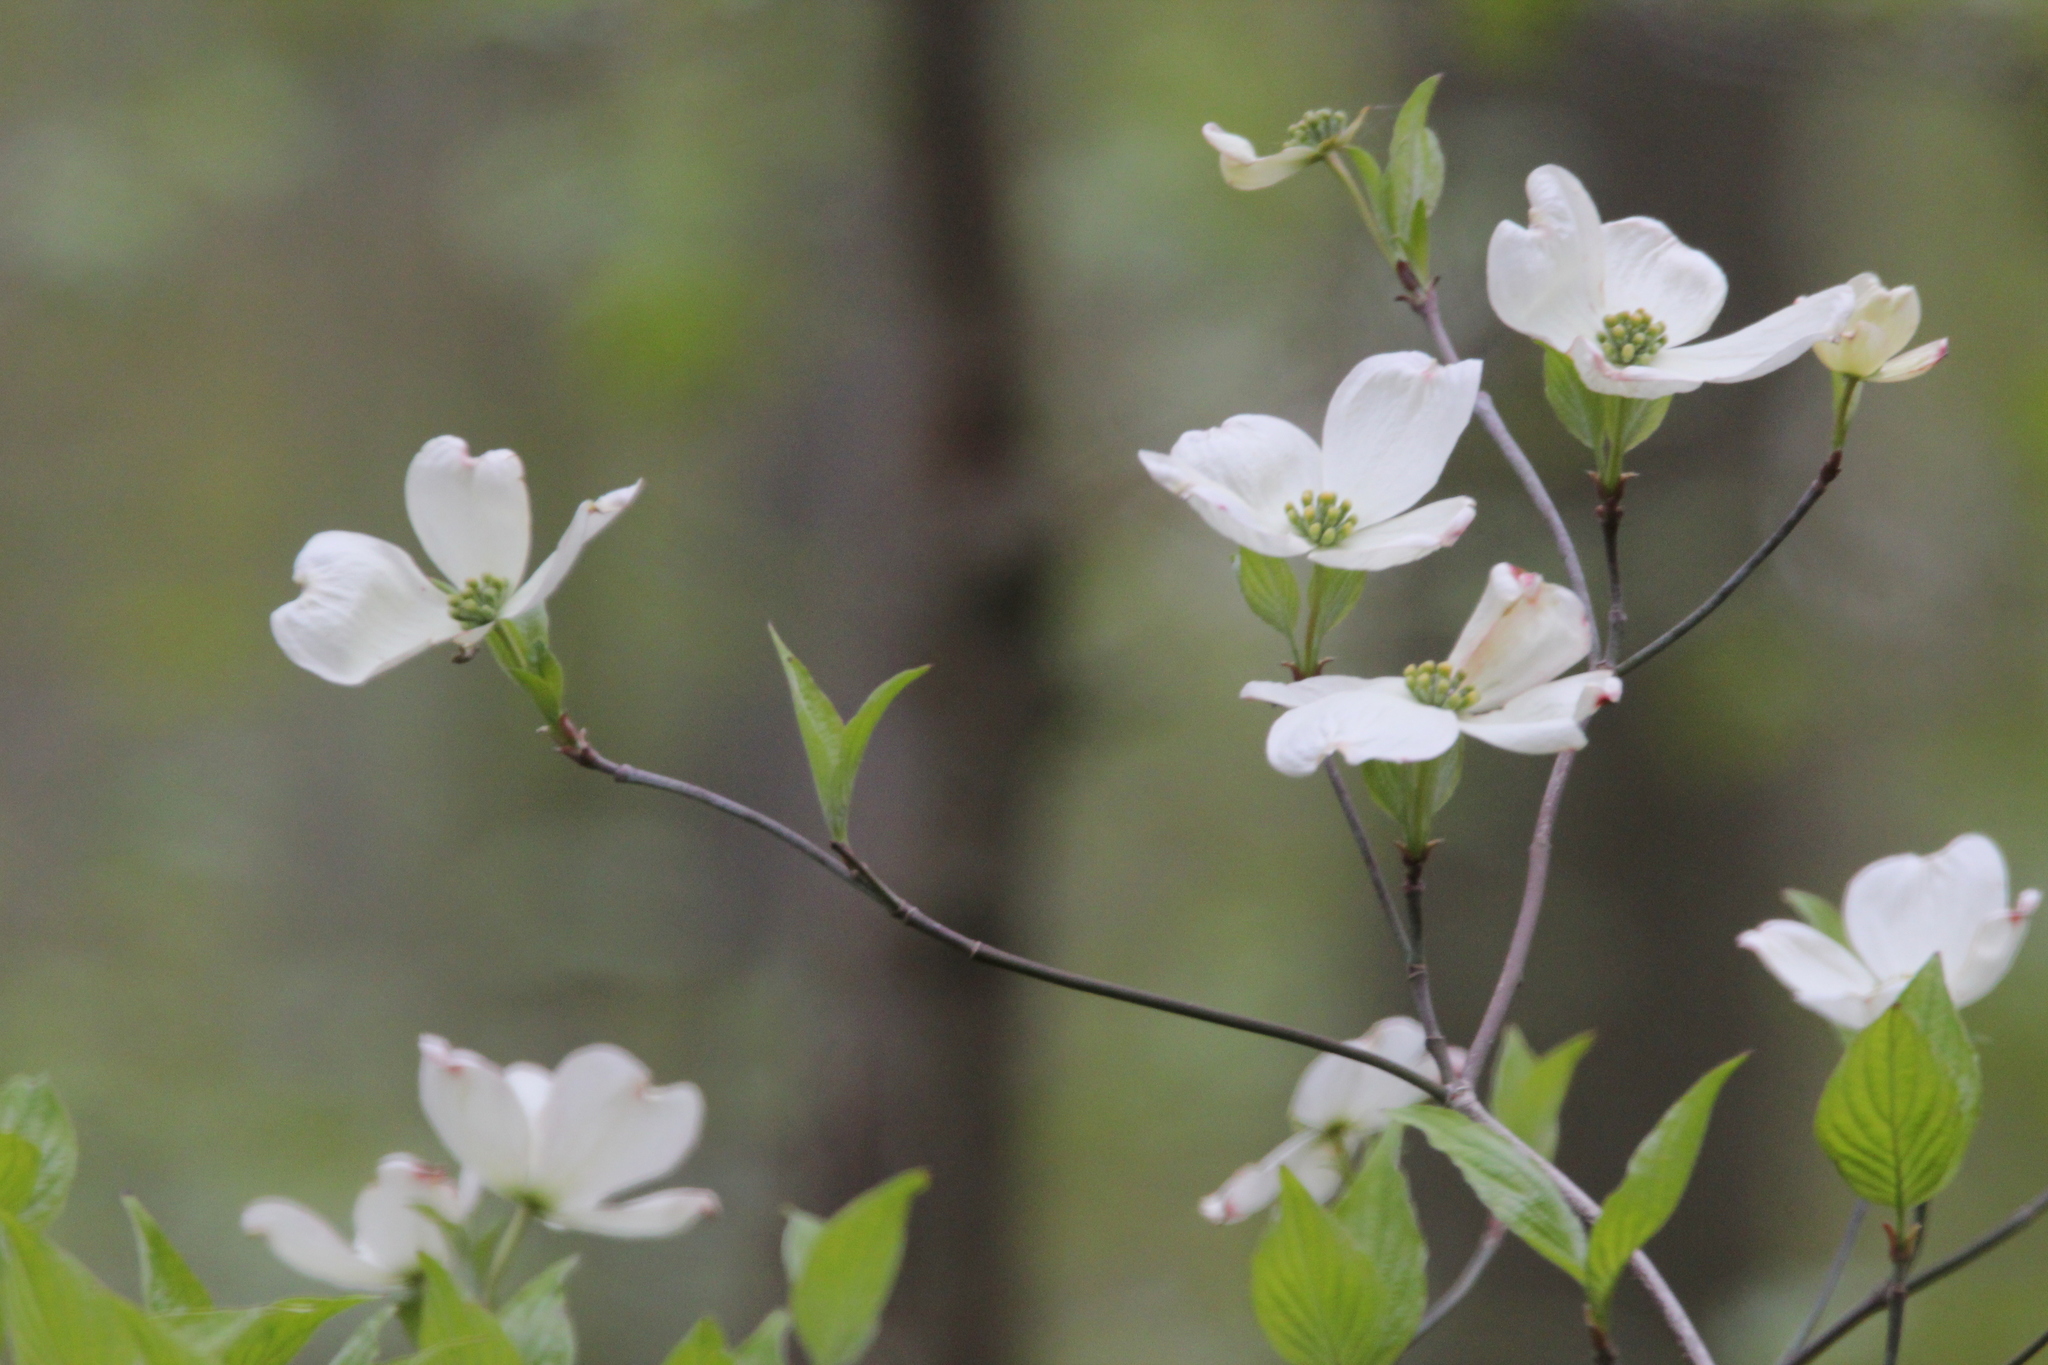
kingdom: Plantae
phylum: Tracheophyta
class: Magnoliopsida
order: Cornales
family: Cornaceae
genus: Cornus
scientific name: Cornus florida
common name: Flowering dogwood
